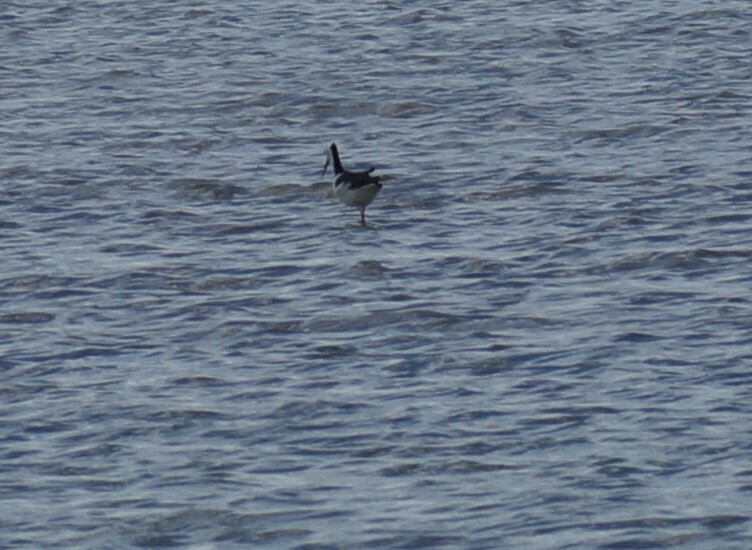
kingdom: Animalia
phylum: Chordata
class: Aves
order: Charadriiformes
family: Recurvirostridae
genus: Himantopus
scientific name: Himantopus leucocephalus
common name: White-headed stilt
